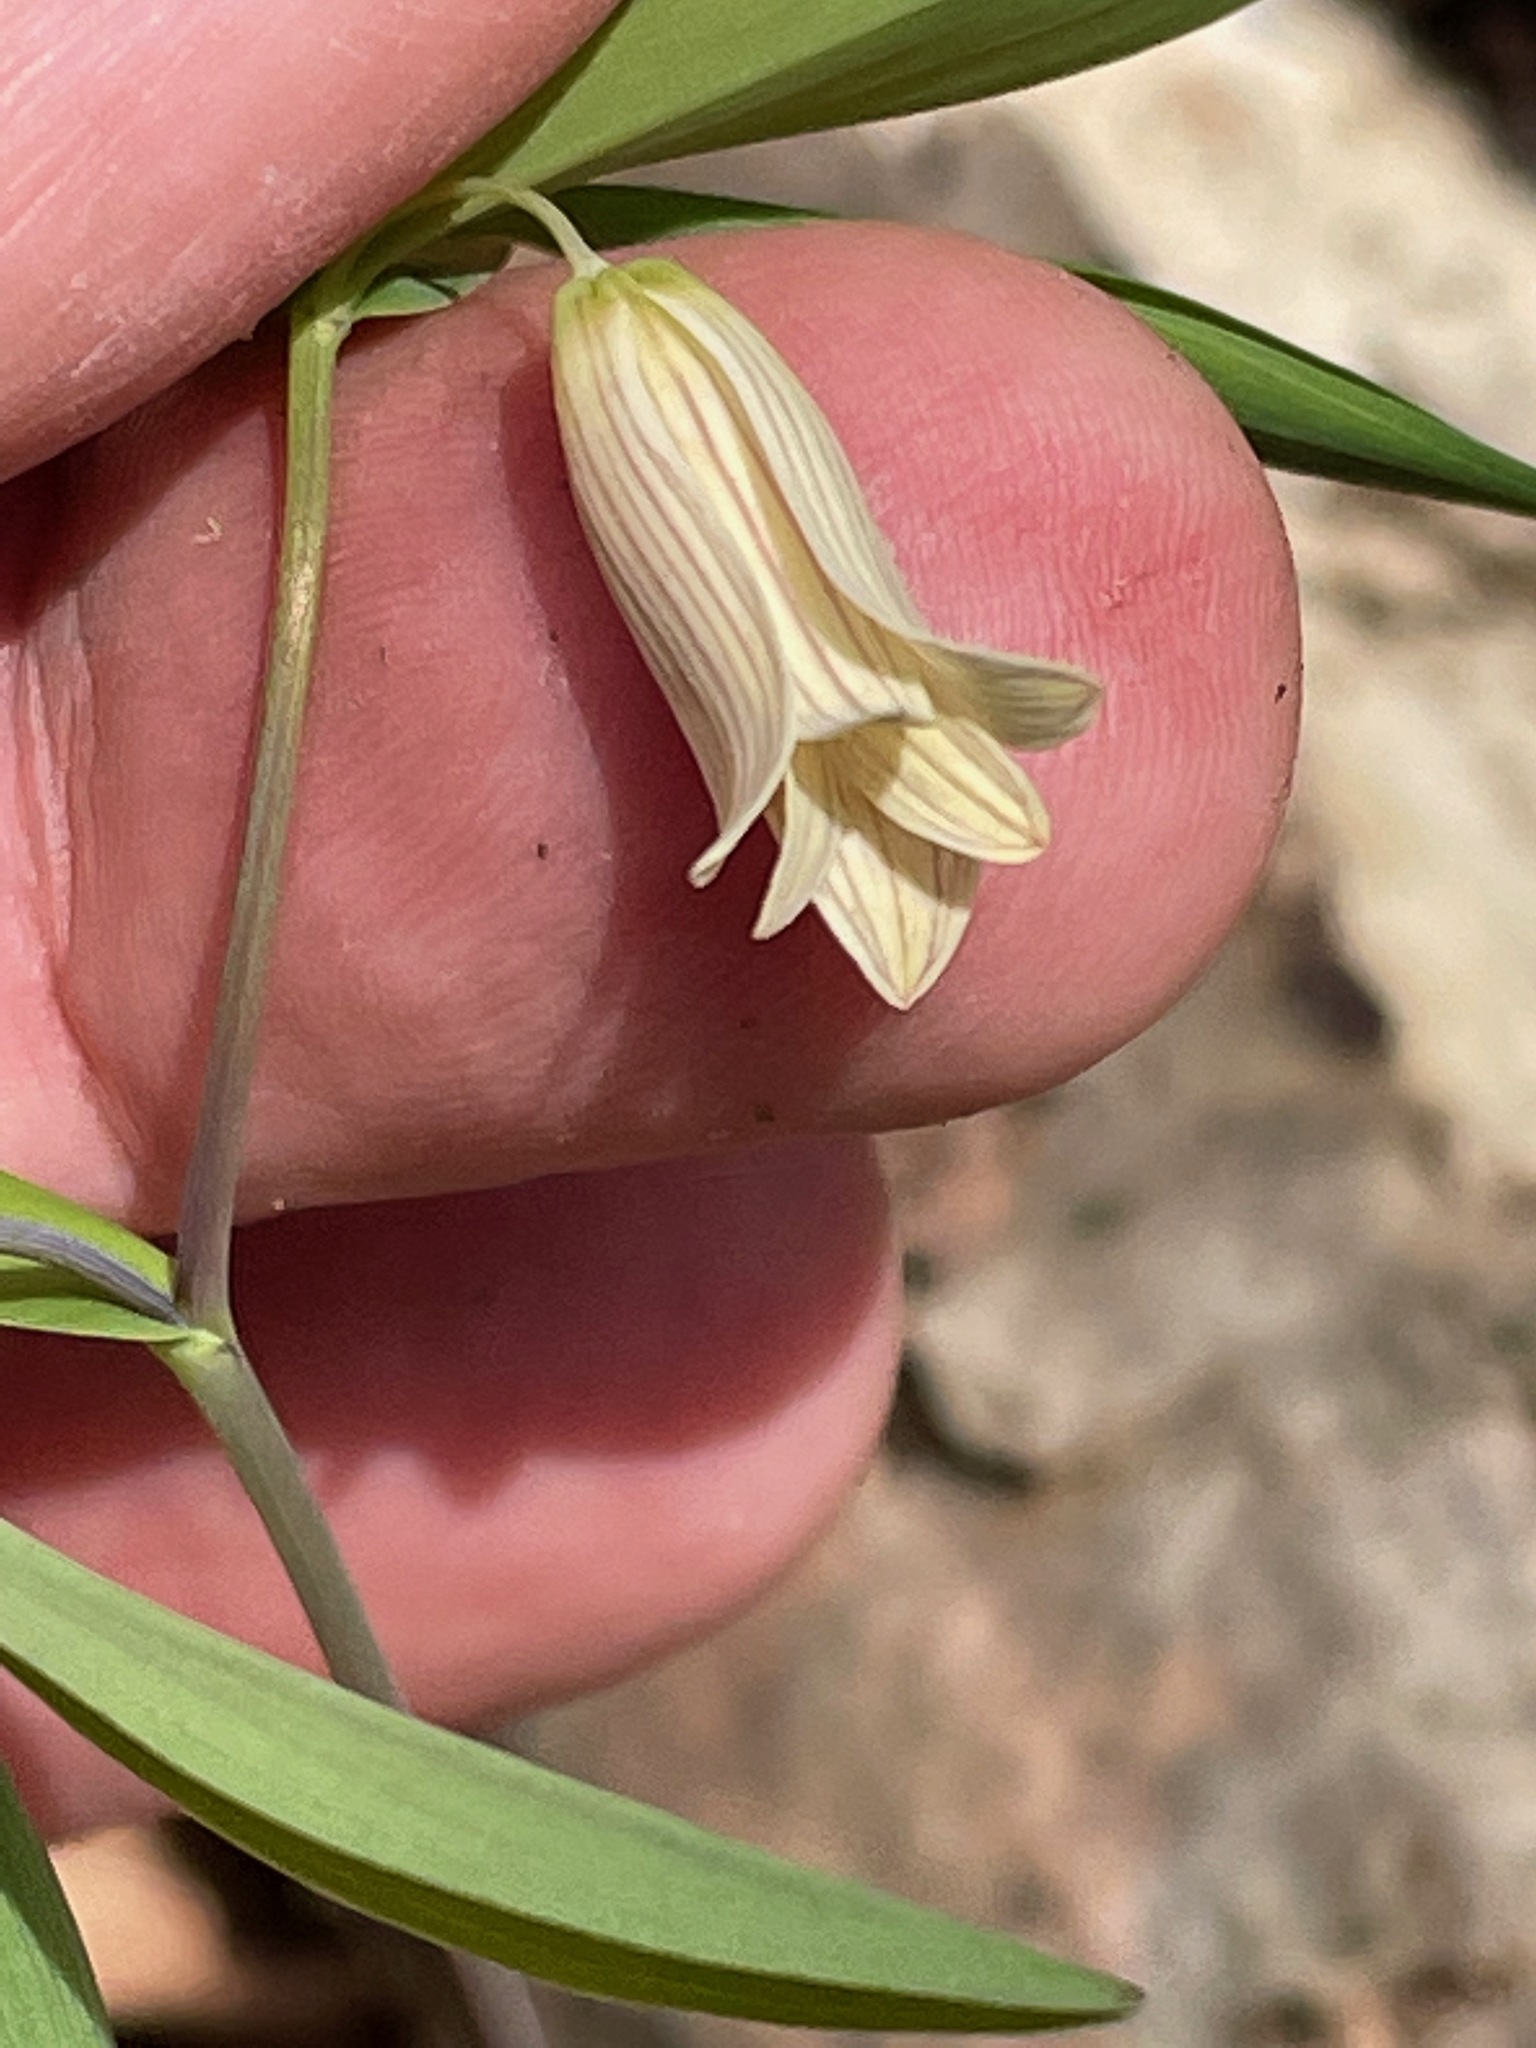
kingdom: Plantae
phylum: Tracheophyta
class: Liliopsida
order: Liliales
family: Colchicaceae
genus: Uvularia
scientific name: Uvularia sessilifolia
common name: Straw-lily
